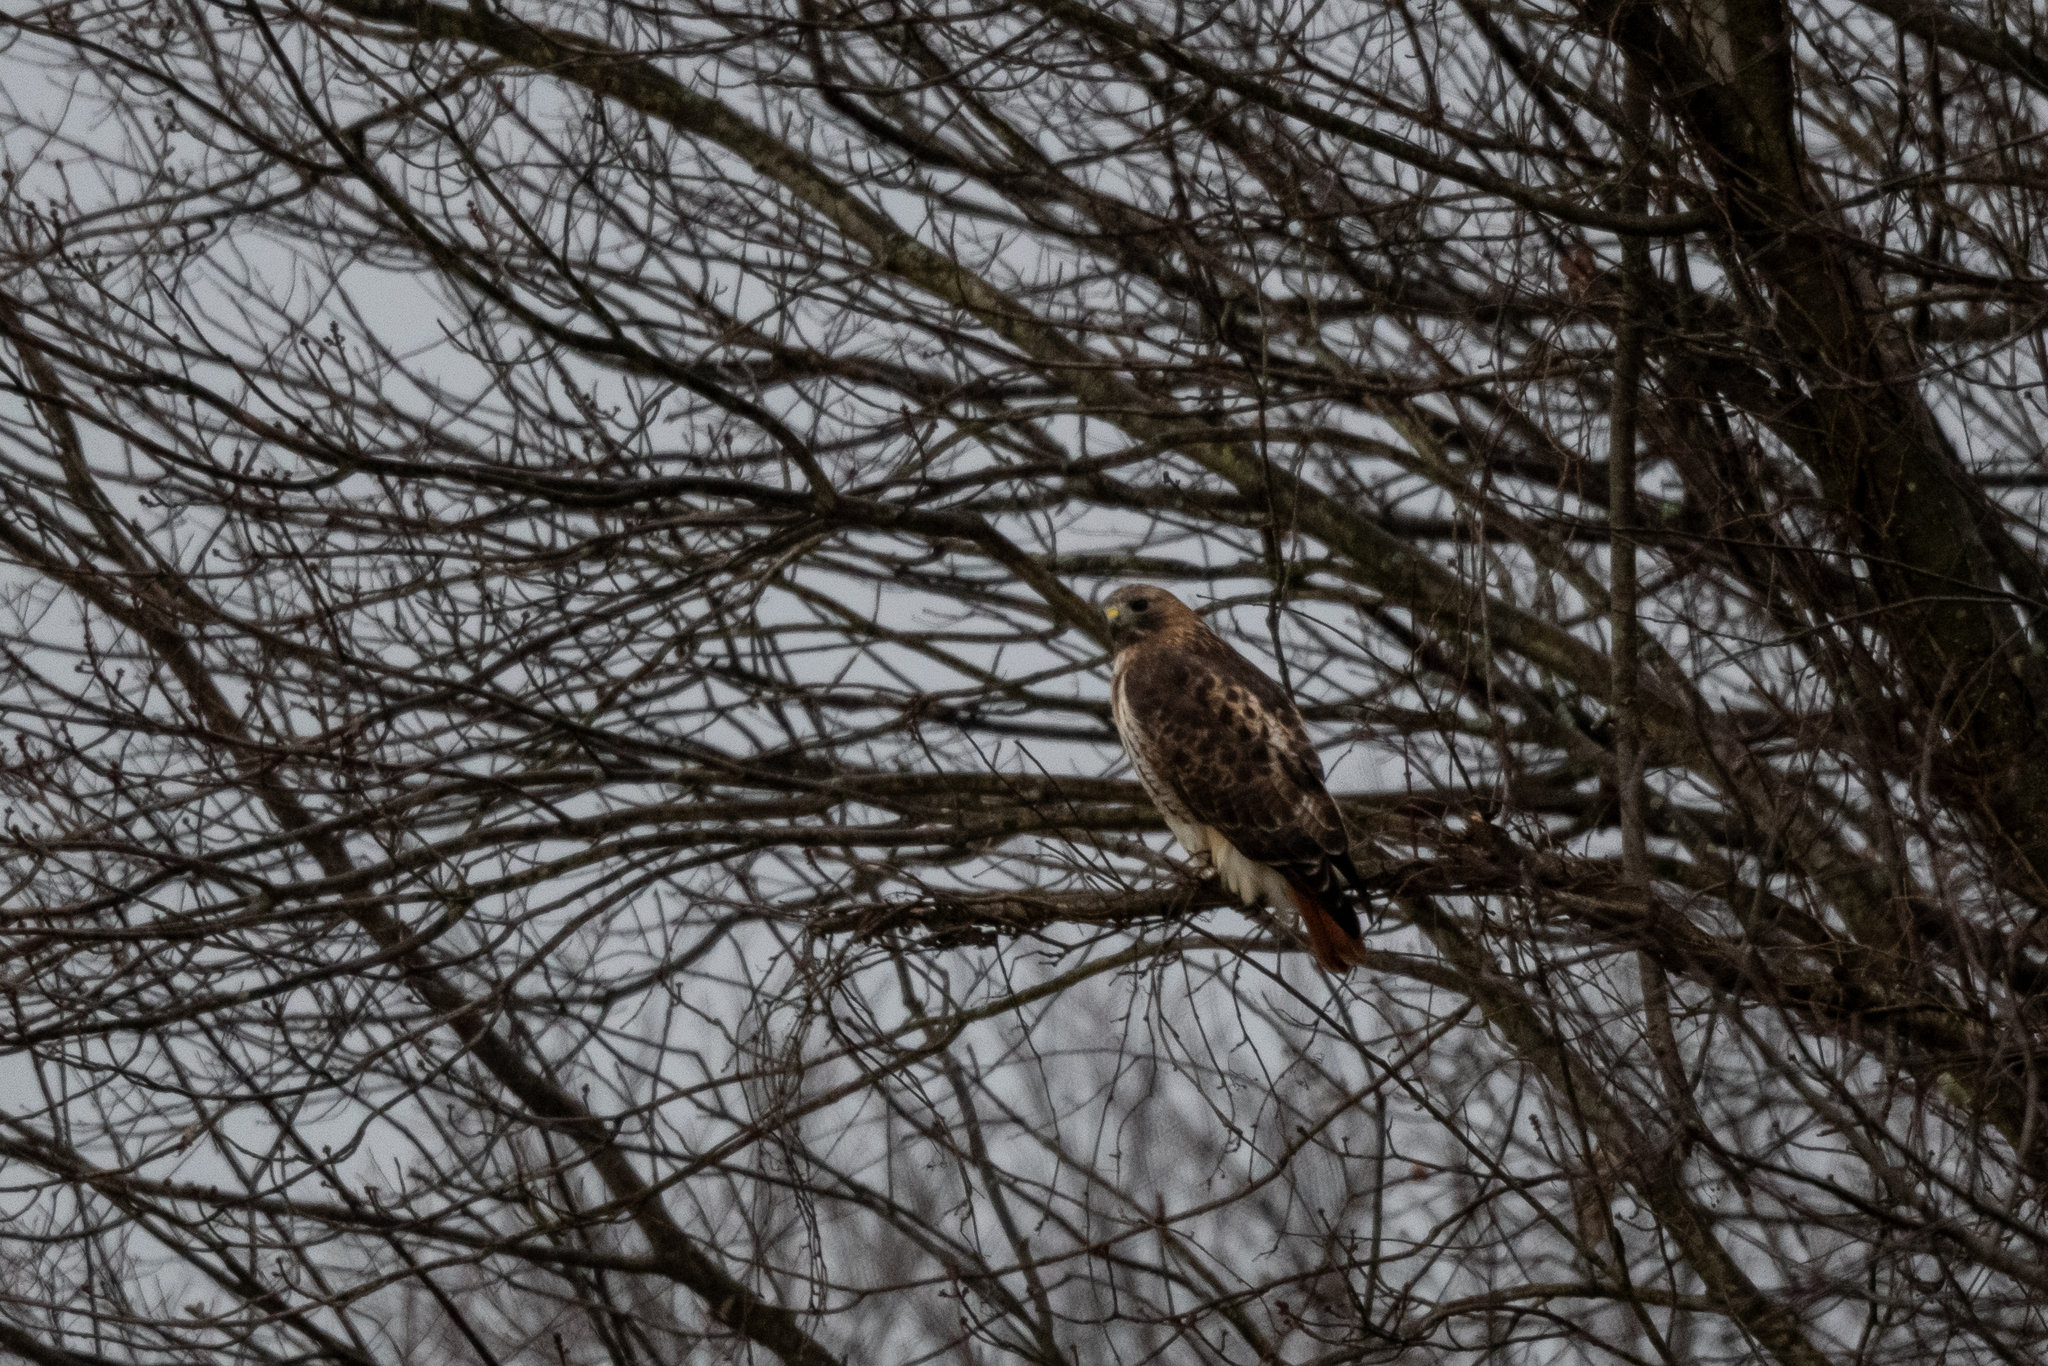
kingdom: Animalia
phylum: Chordata
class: Aves
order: Accipitriformes
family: Accipitridae
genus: Buteo
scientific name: Buteo jamaicensis
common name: Red-tailed hawk
